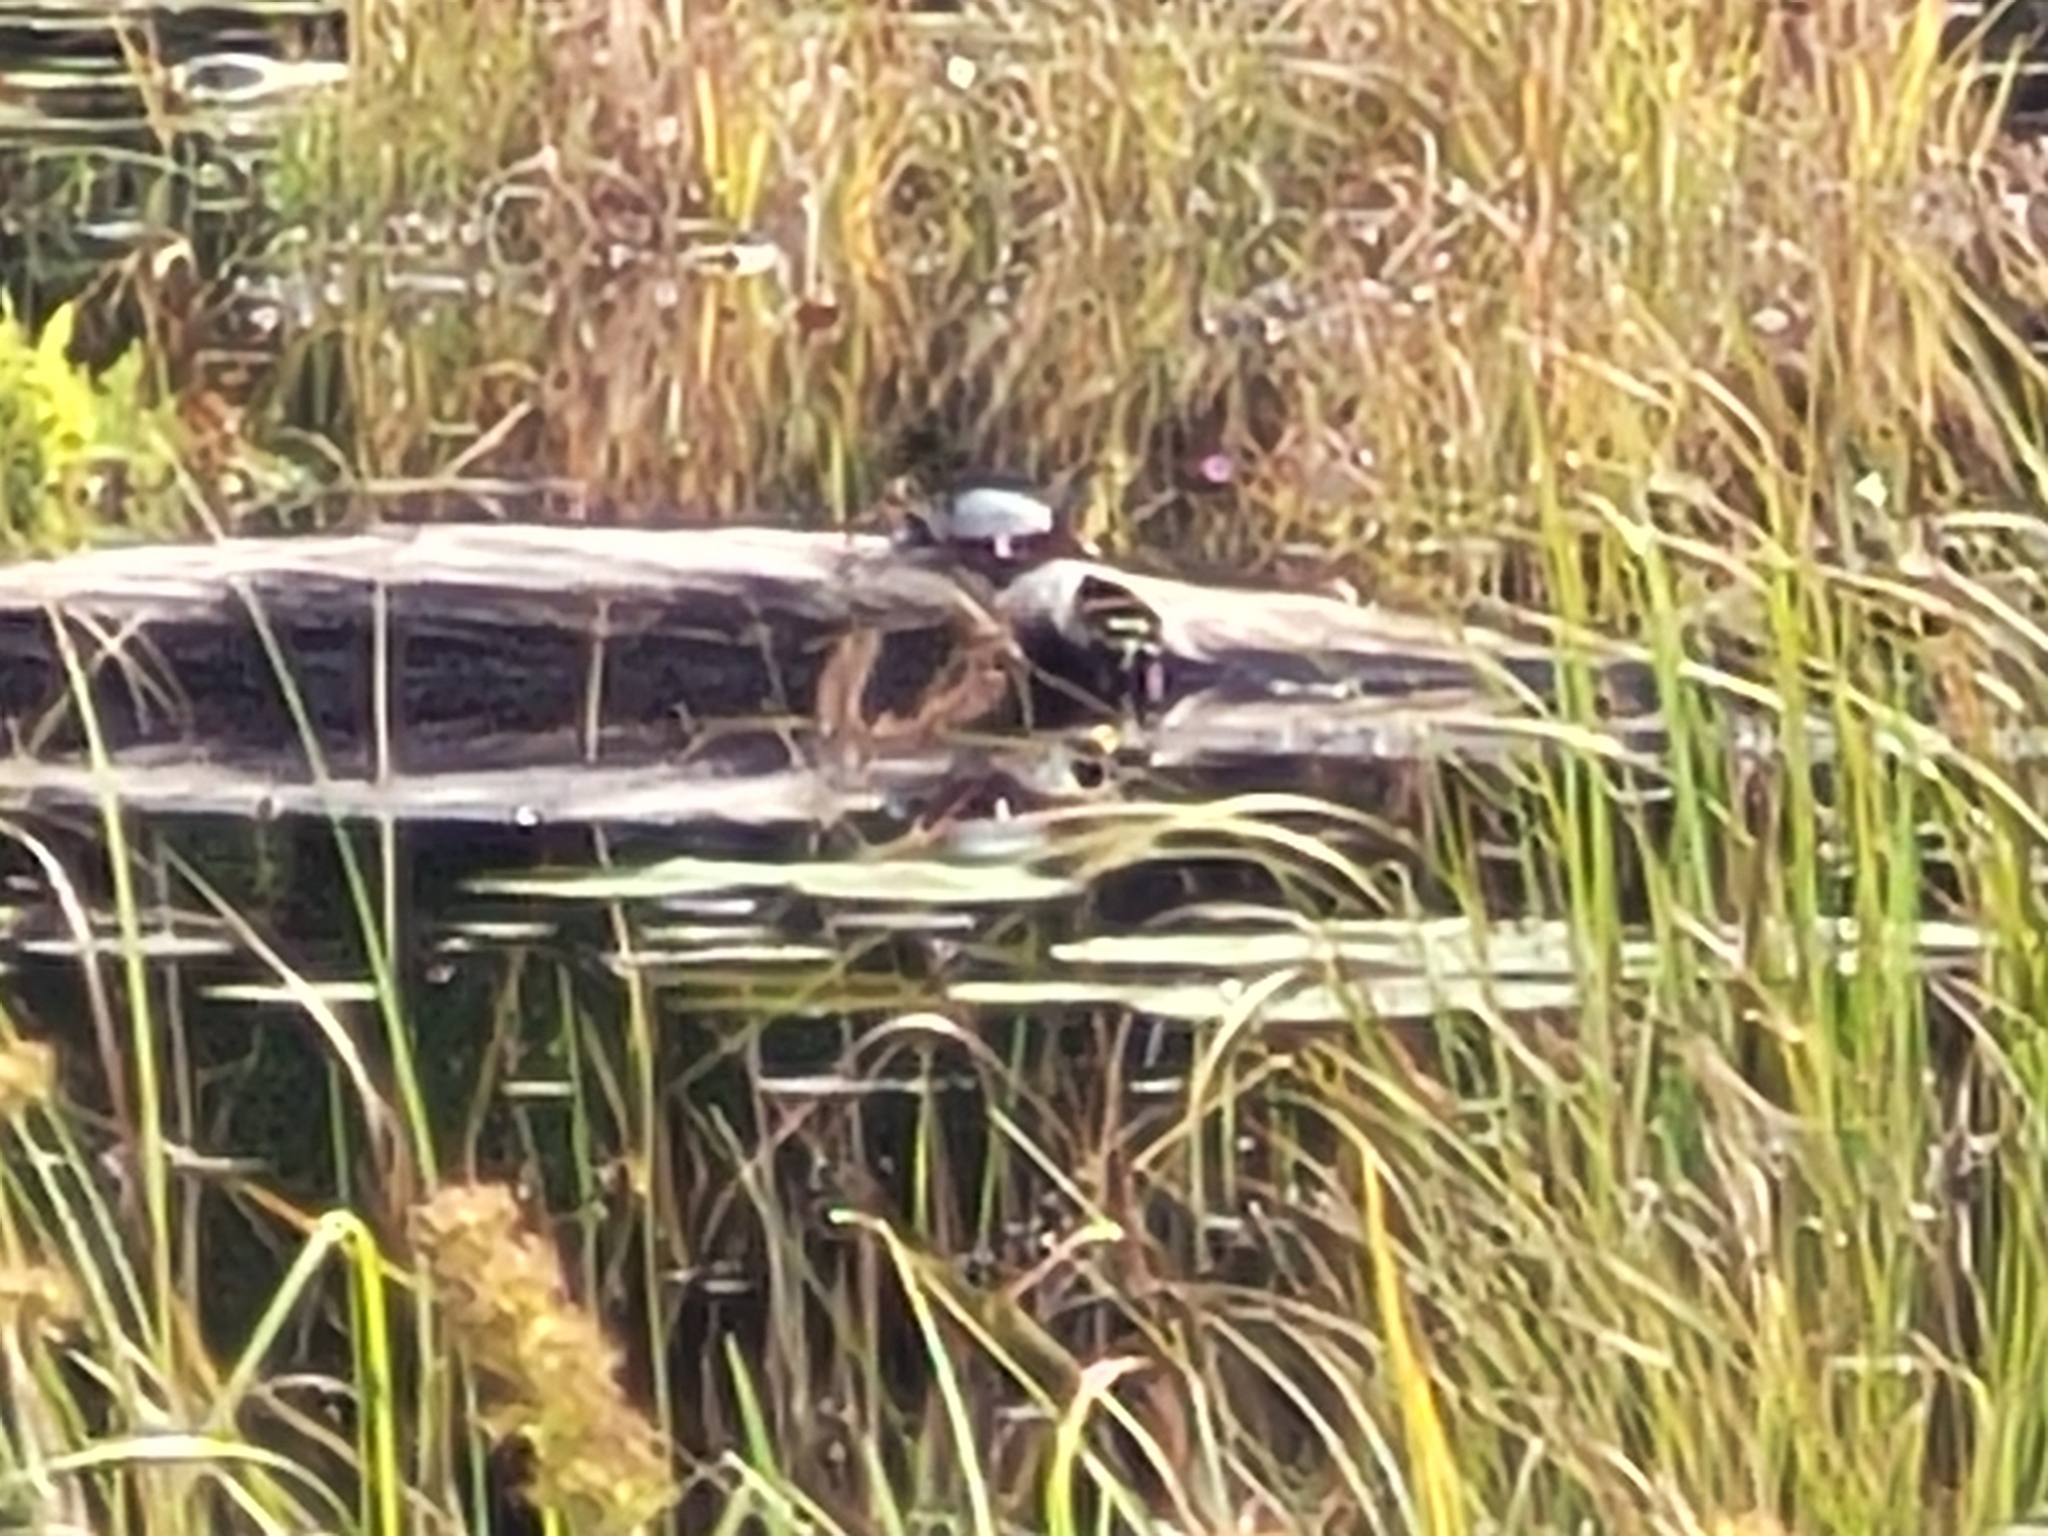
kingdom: Animalia
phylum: Chordata
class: Testudines
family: Emydidae
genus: Chrysemys
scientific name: Chrysemys picta
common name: Painted turtle
